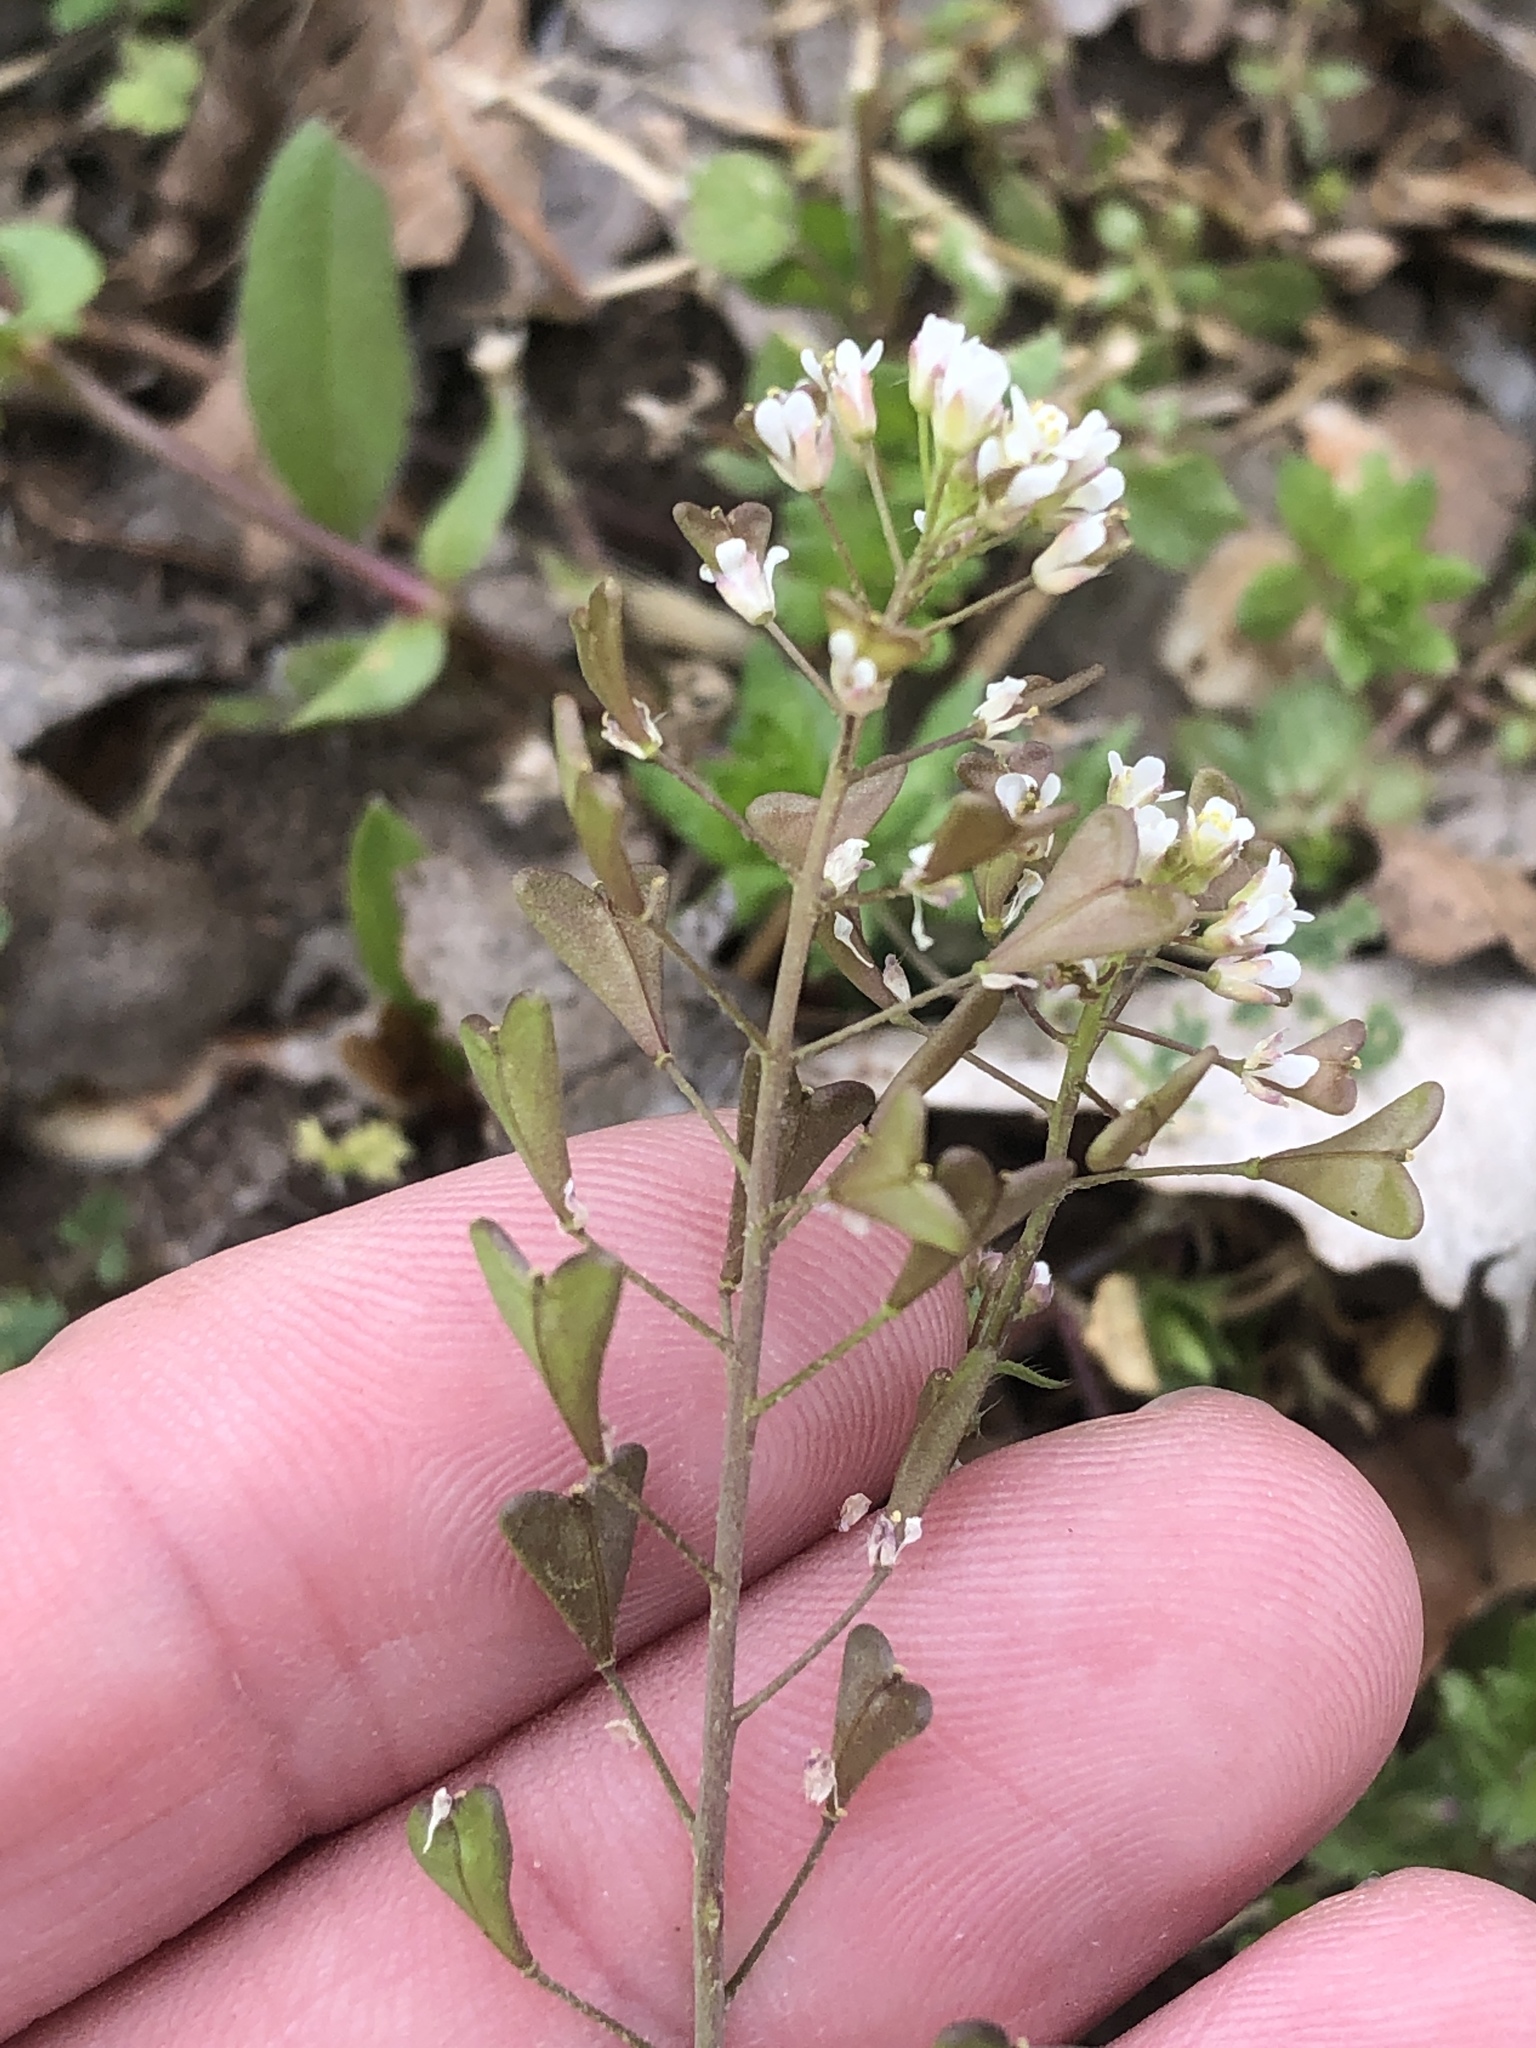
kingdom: Plantae
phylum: Tracheophyta
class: Magnoliopsida
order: Brassicales
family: Brassicaceae
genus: Capsella
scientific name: Capsella bursa-pastoris
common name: Shepherd's purse
